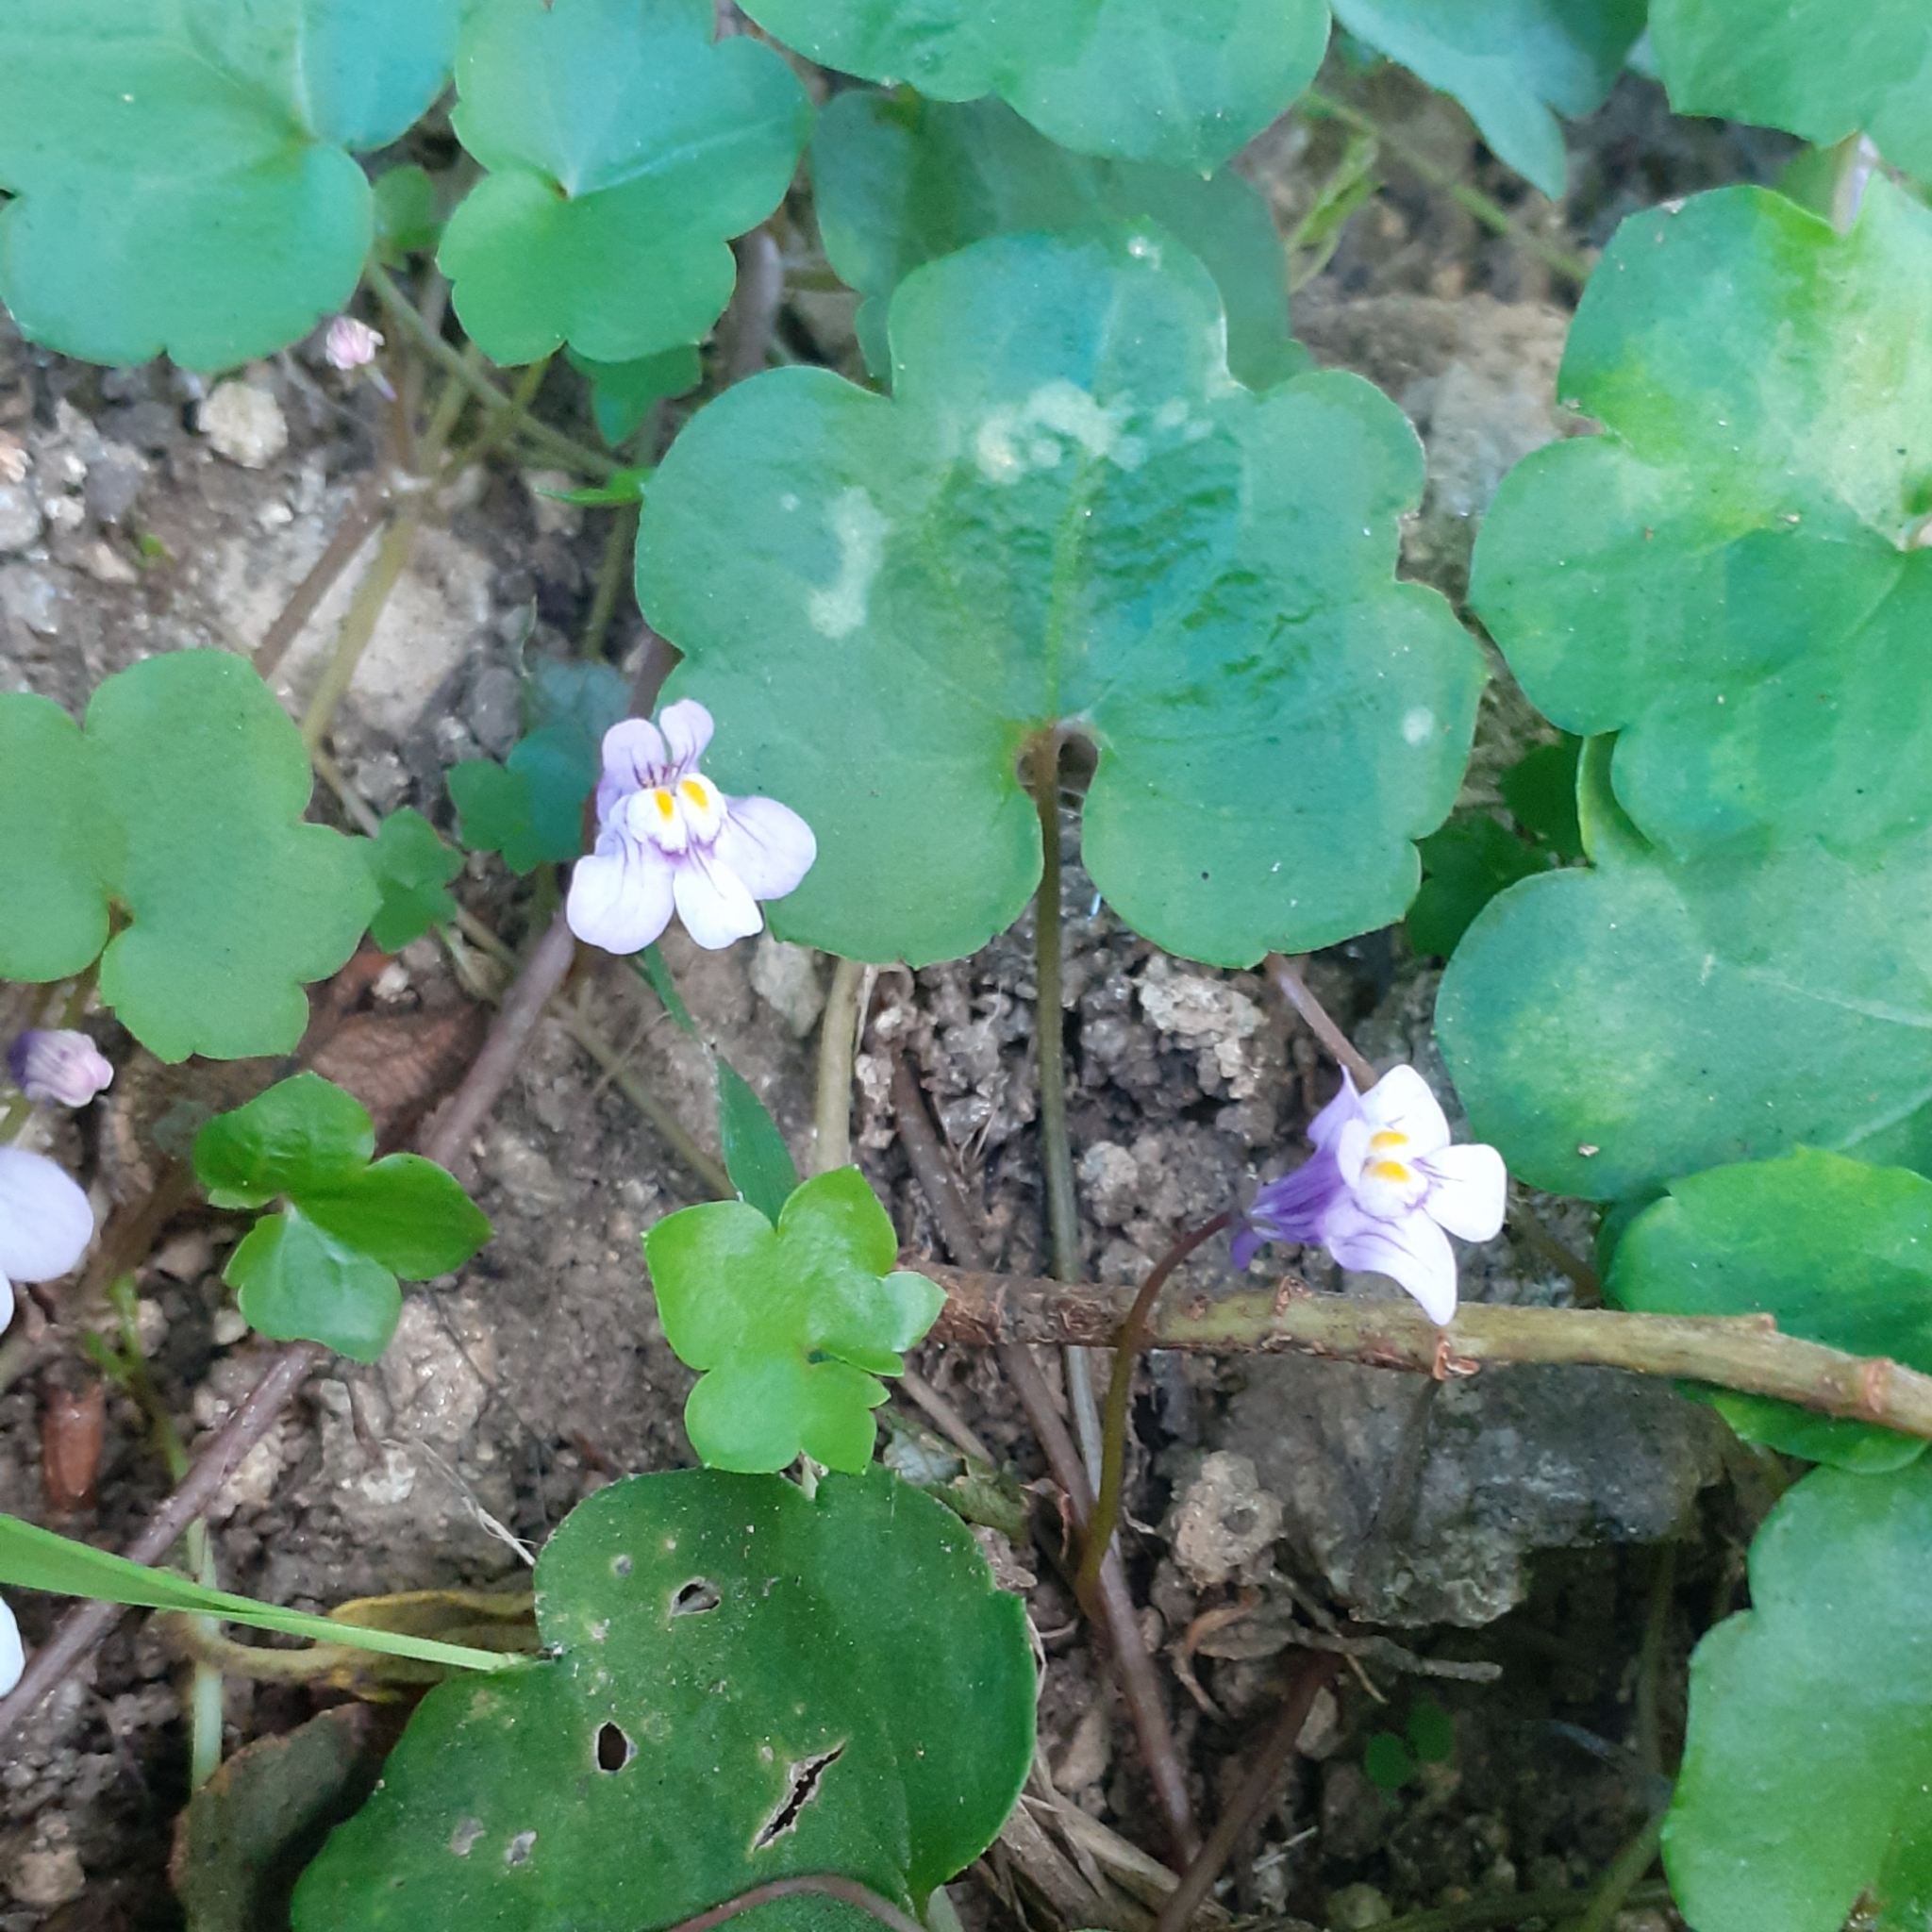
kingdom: Plantae
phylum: Tracheophyta
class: Magnoliopsida
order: Lamiales
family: Plantaginaceae
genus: Cymbalaria
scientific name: Cymbalaria muralis
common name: Ivy-leaved toadflax
